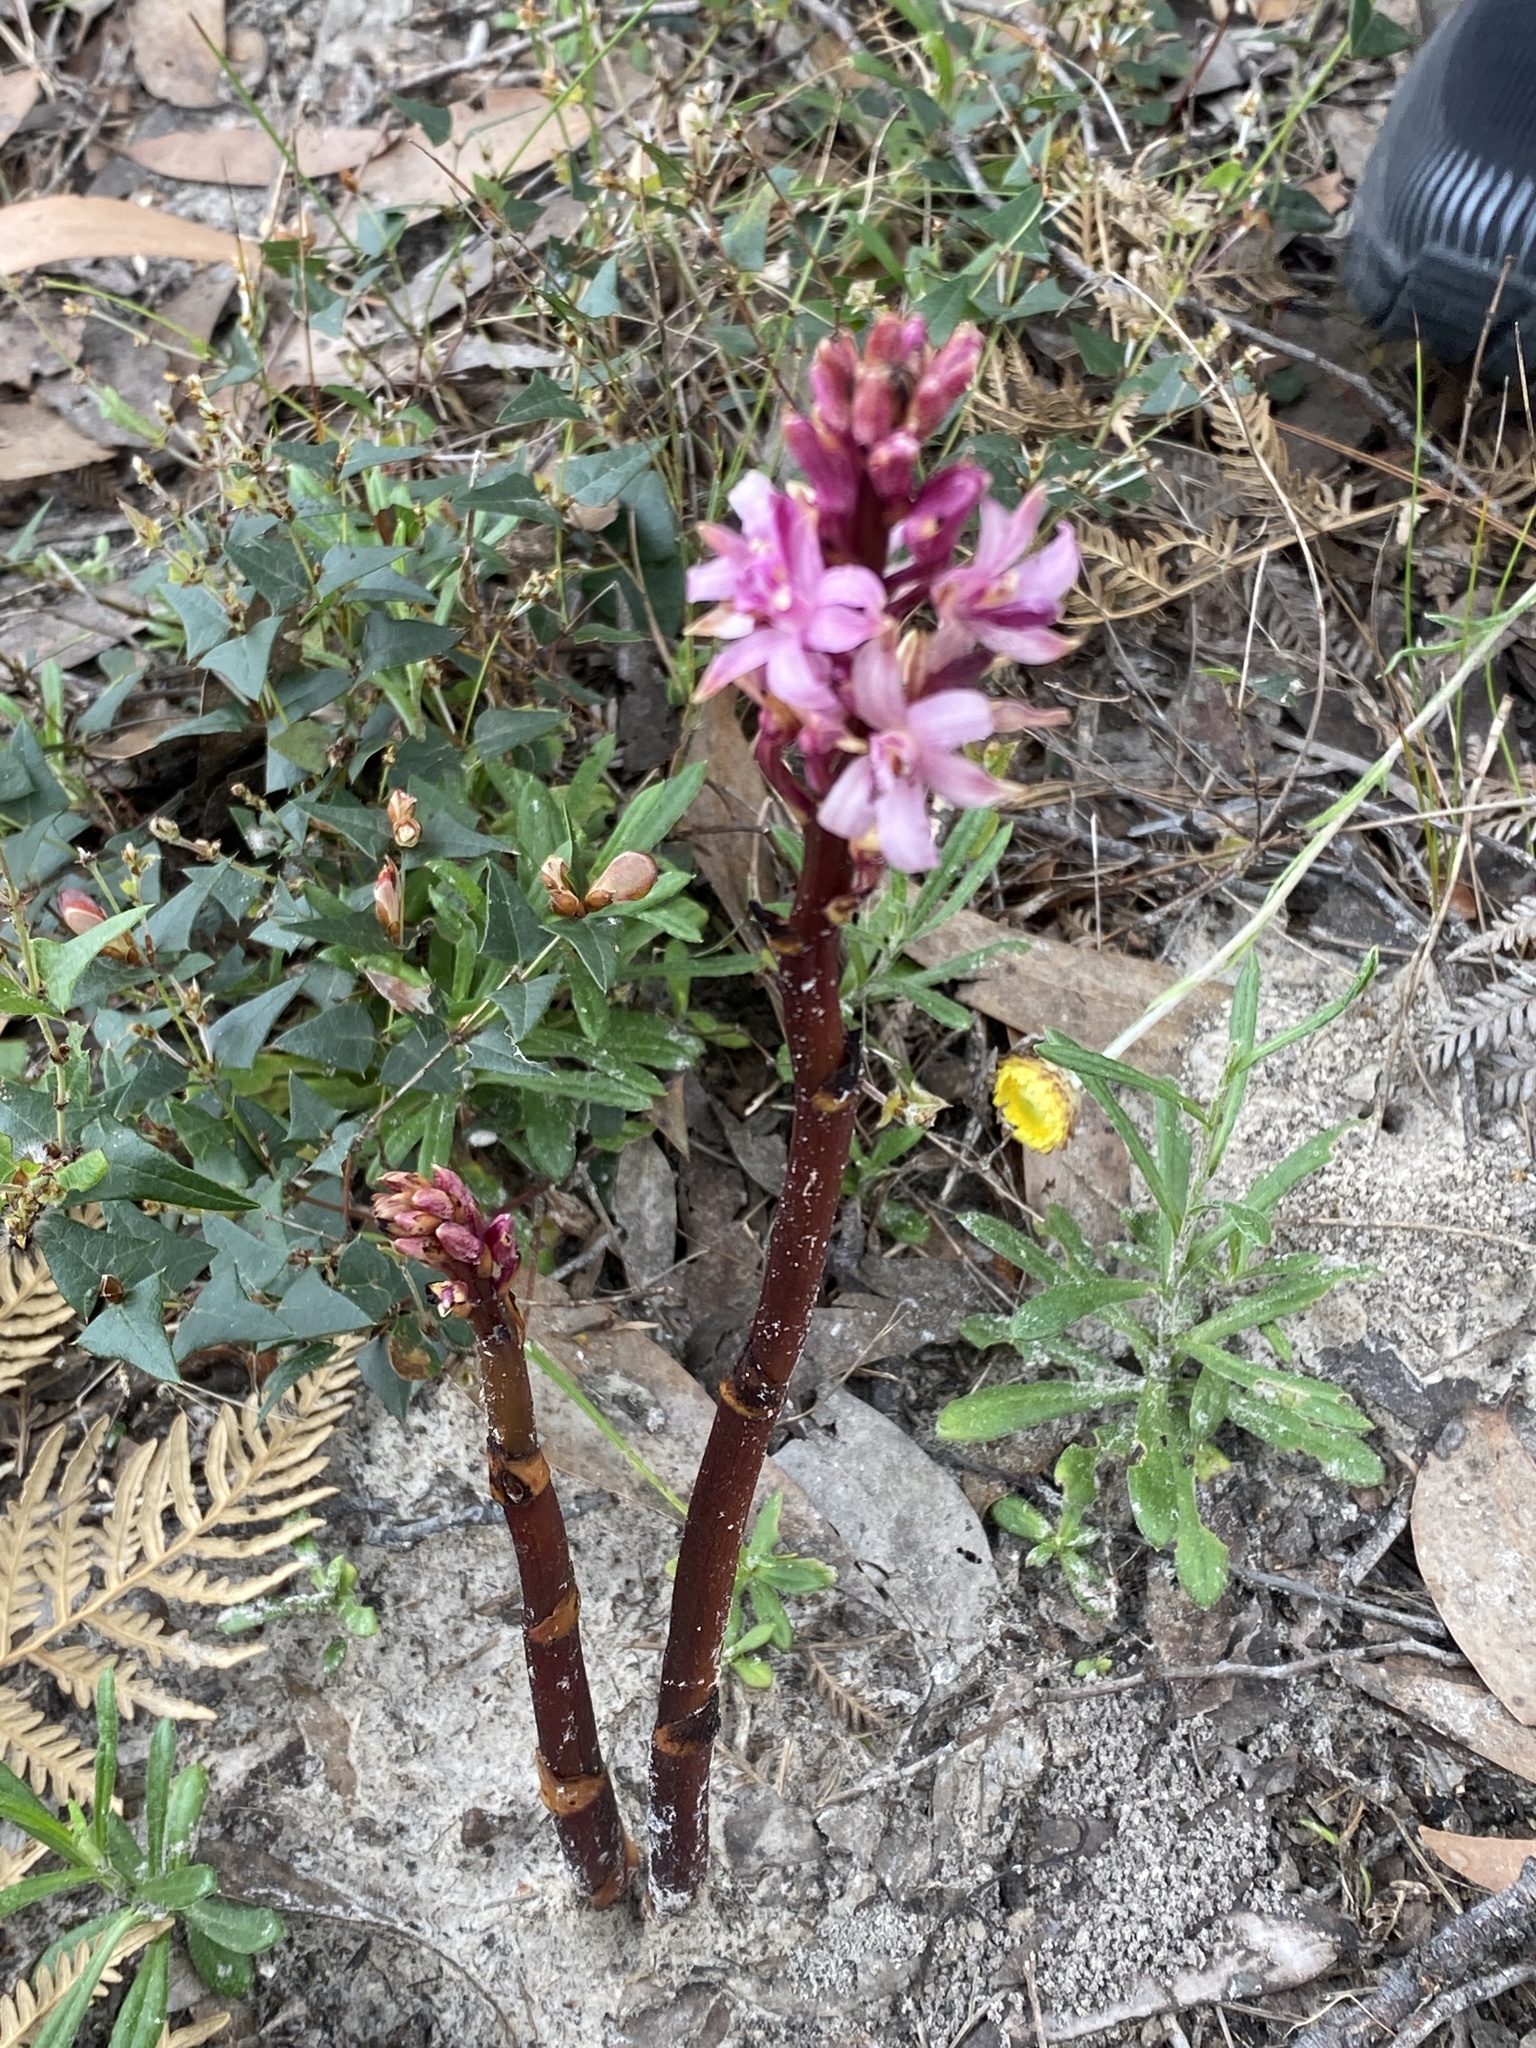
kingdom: Plantae
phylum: Tracheophyta
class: Liliopsida
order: Asparagales
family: Orchidaceae
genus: Dipodium
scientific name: Dipodium roseum
